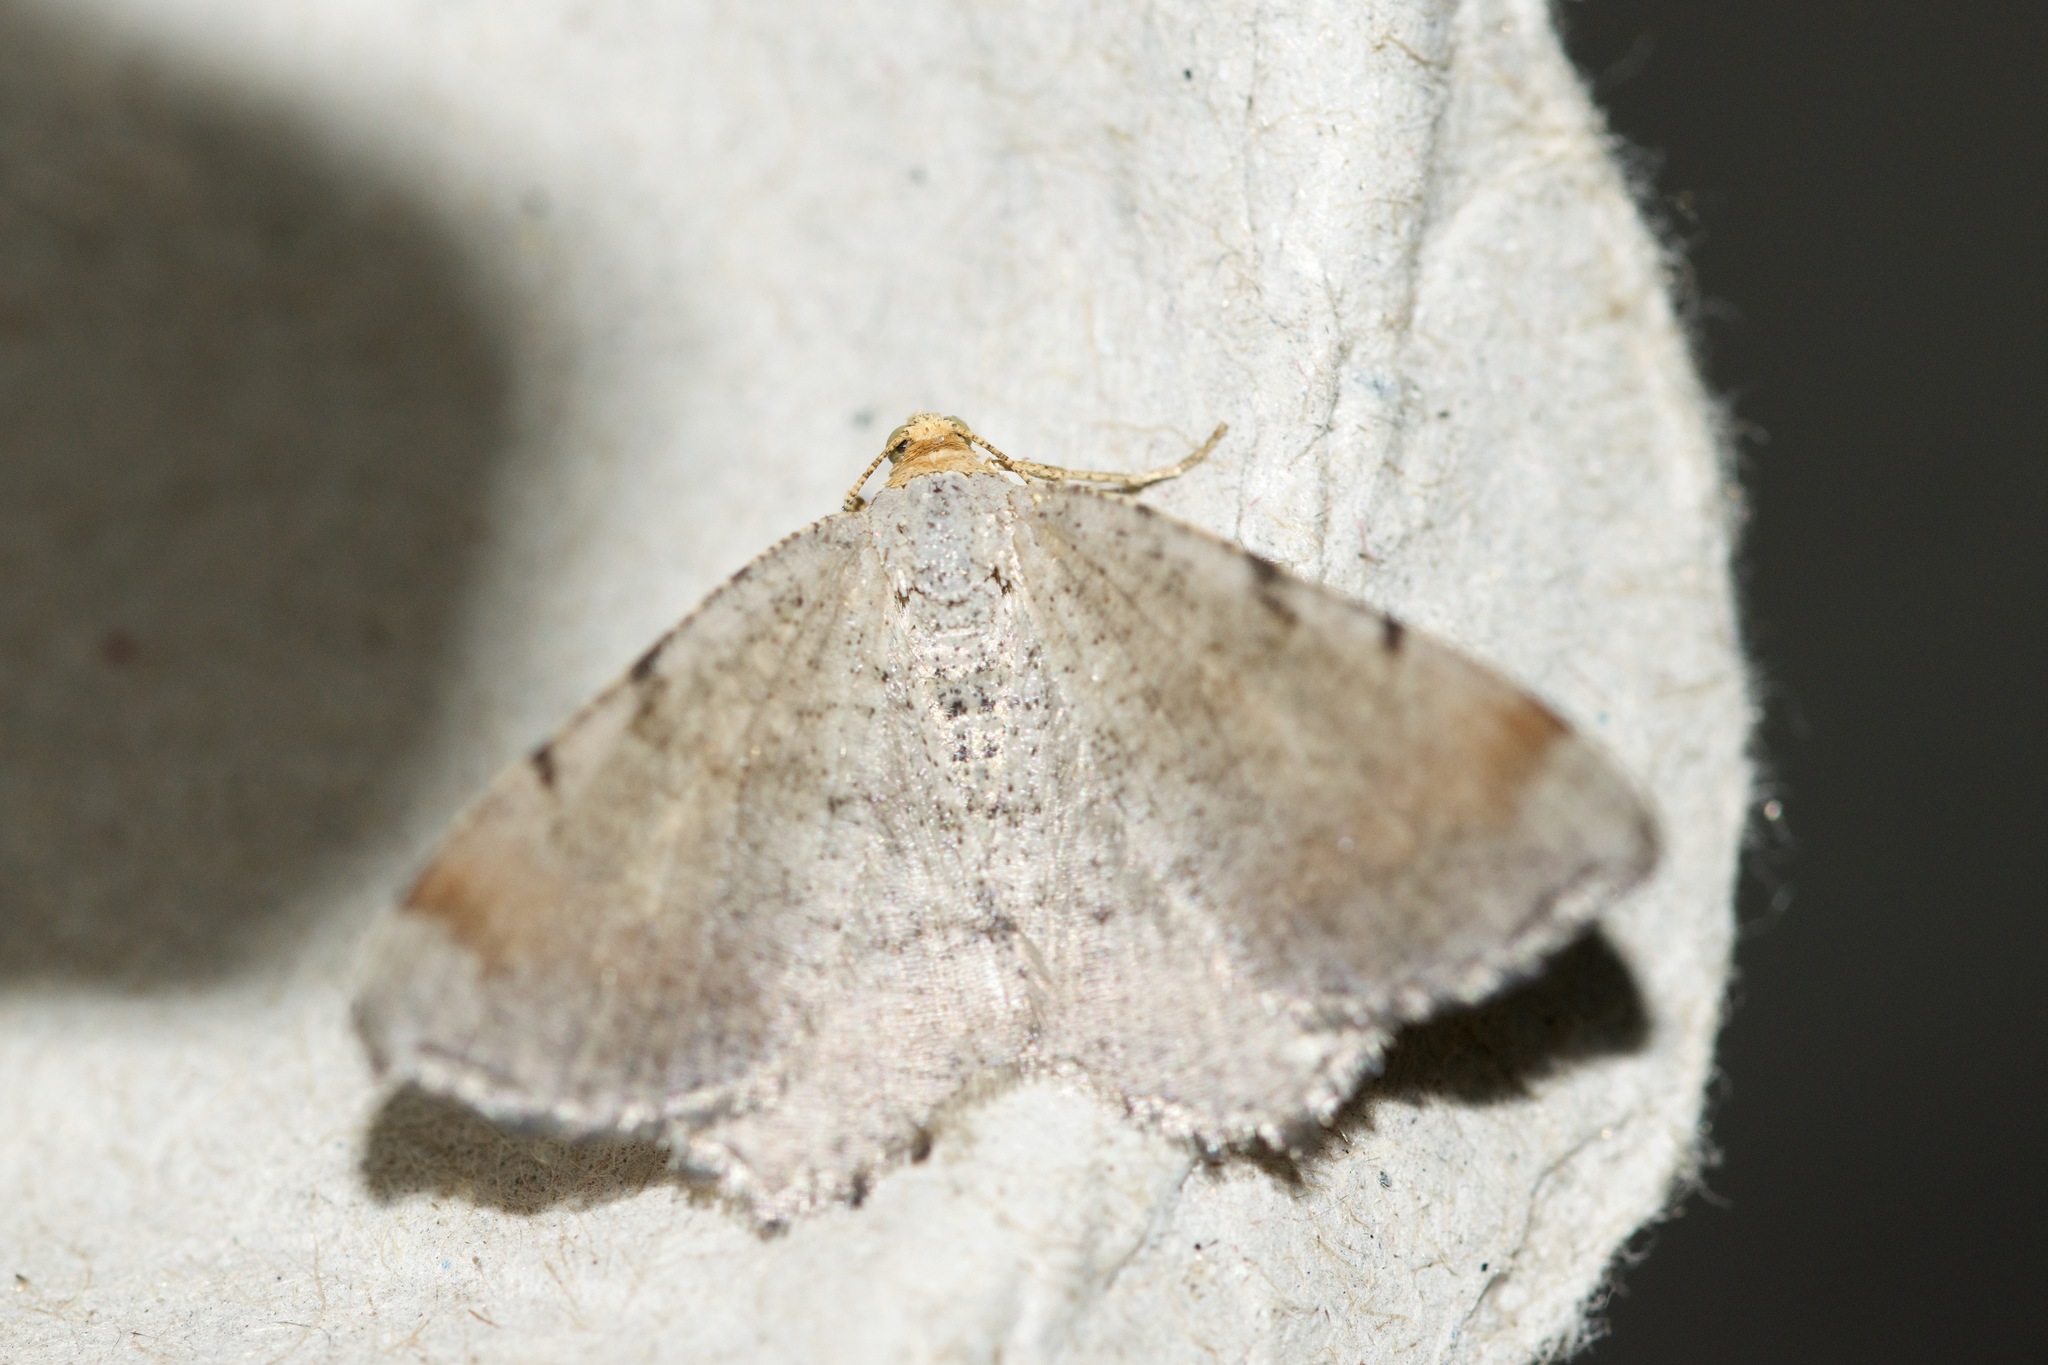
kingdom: Animalia
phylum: Arthropoda
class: Insecta
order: Lepidoptera
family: Geometridae
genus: Macaria
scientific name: Macaria minorata
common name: Minor angle moth
